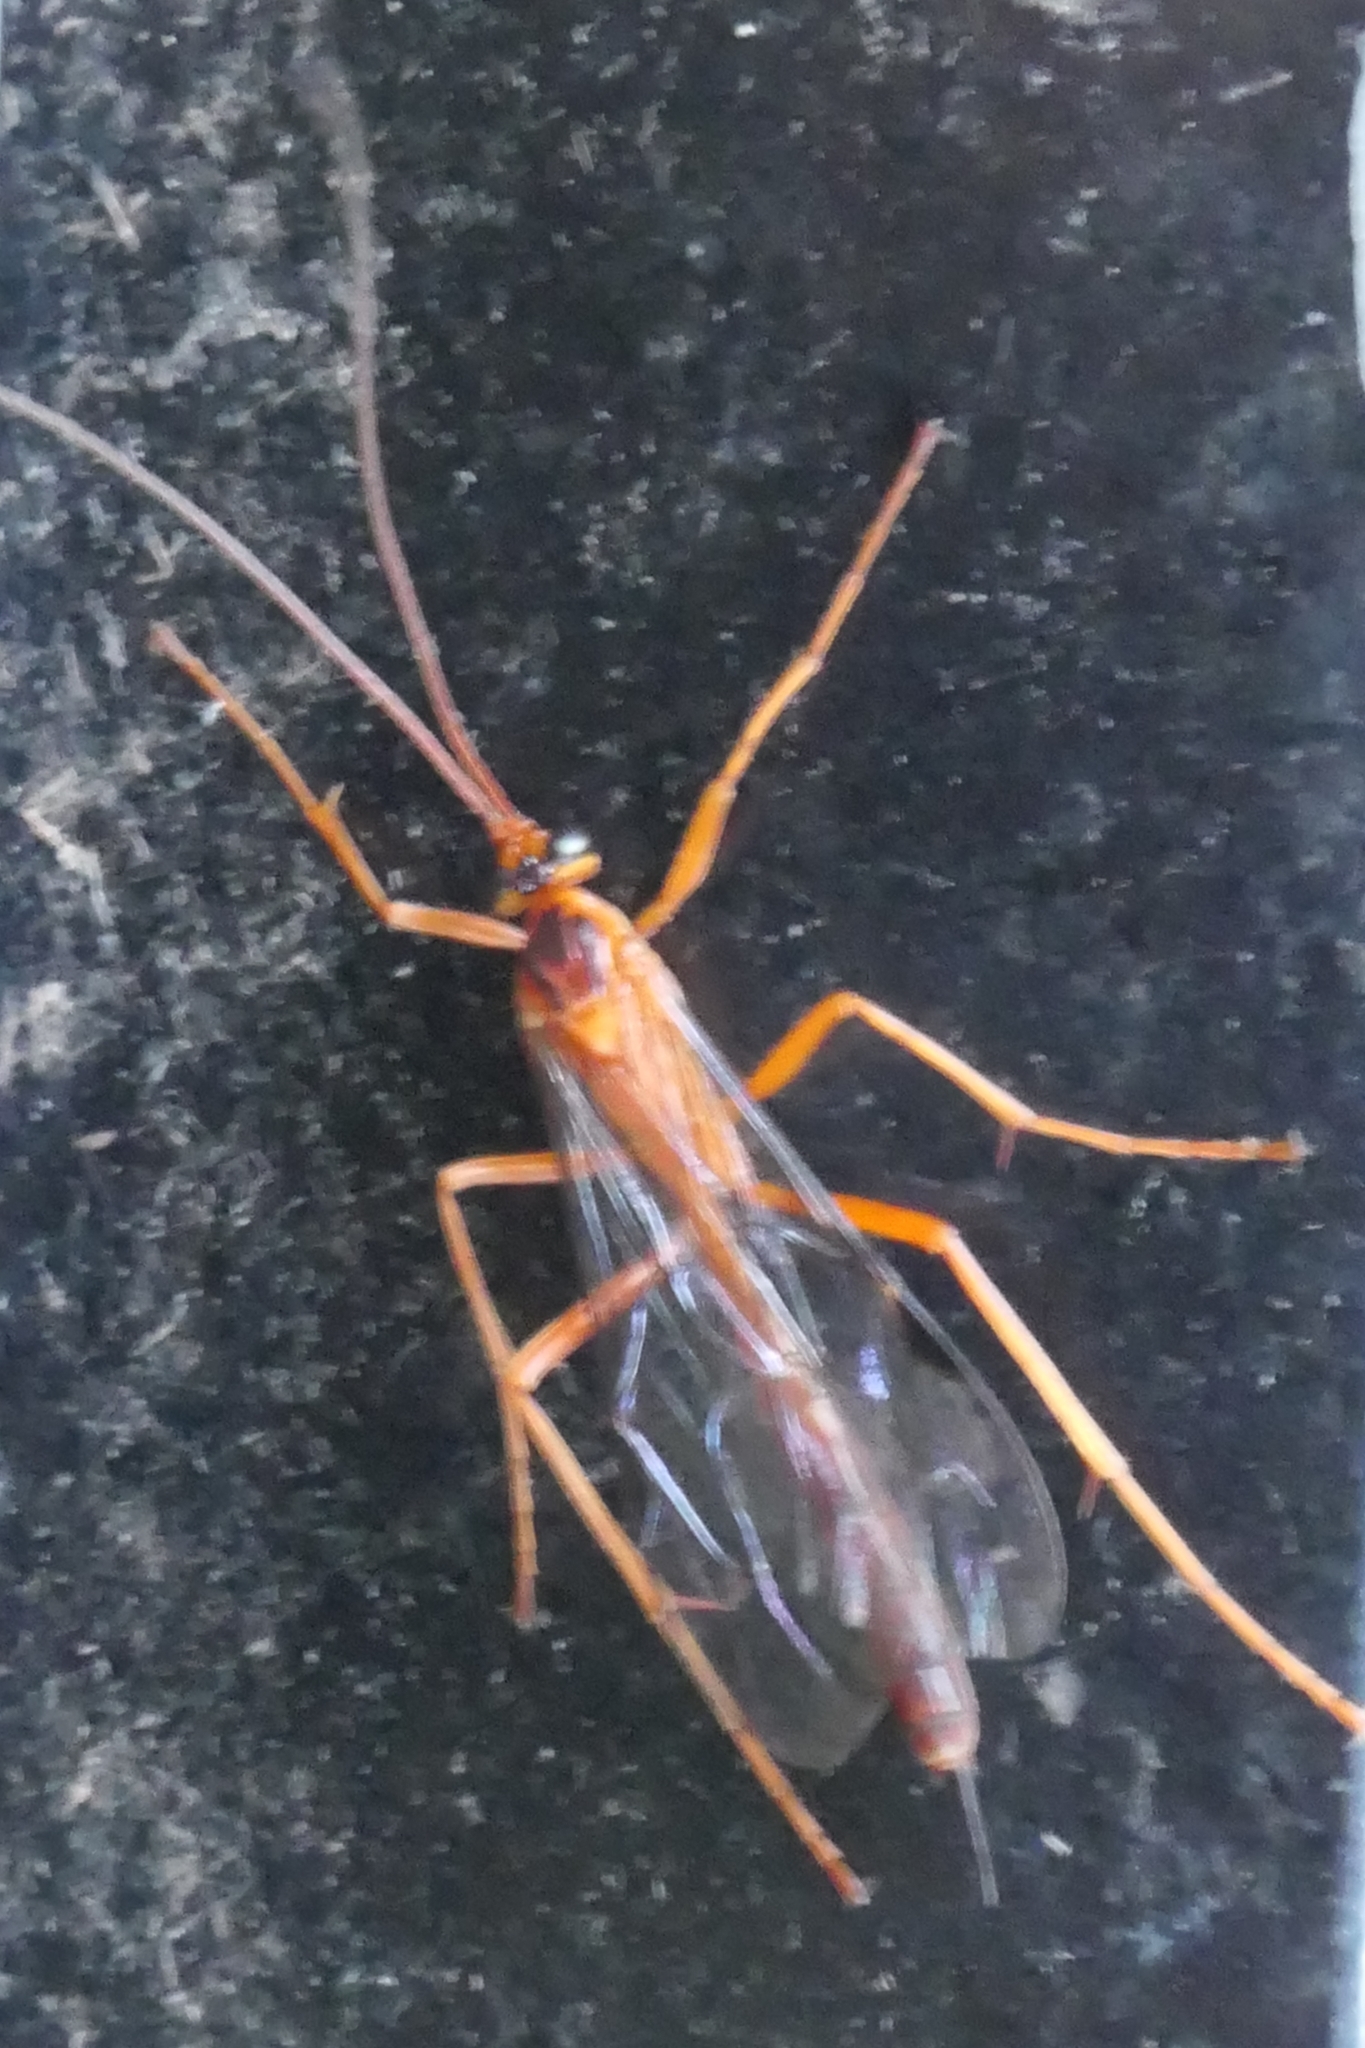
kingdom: Animalia
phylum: Arthropoda
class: Insecta
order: Hymenoptera
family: Ichneumonidae
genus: Netelia
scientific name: Netelia ephippiata
